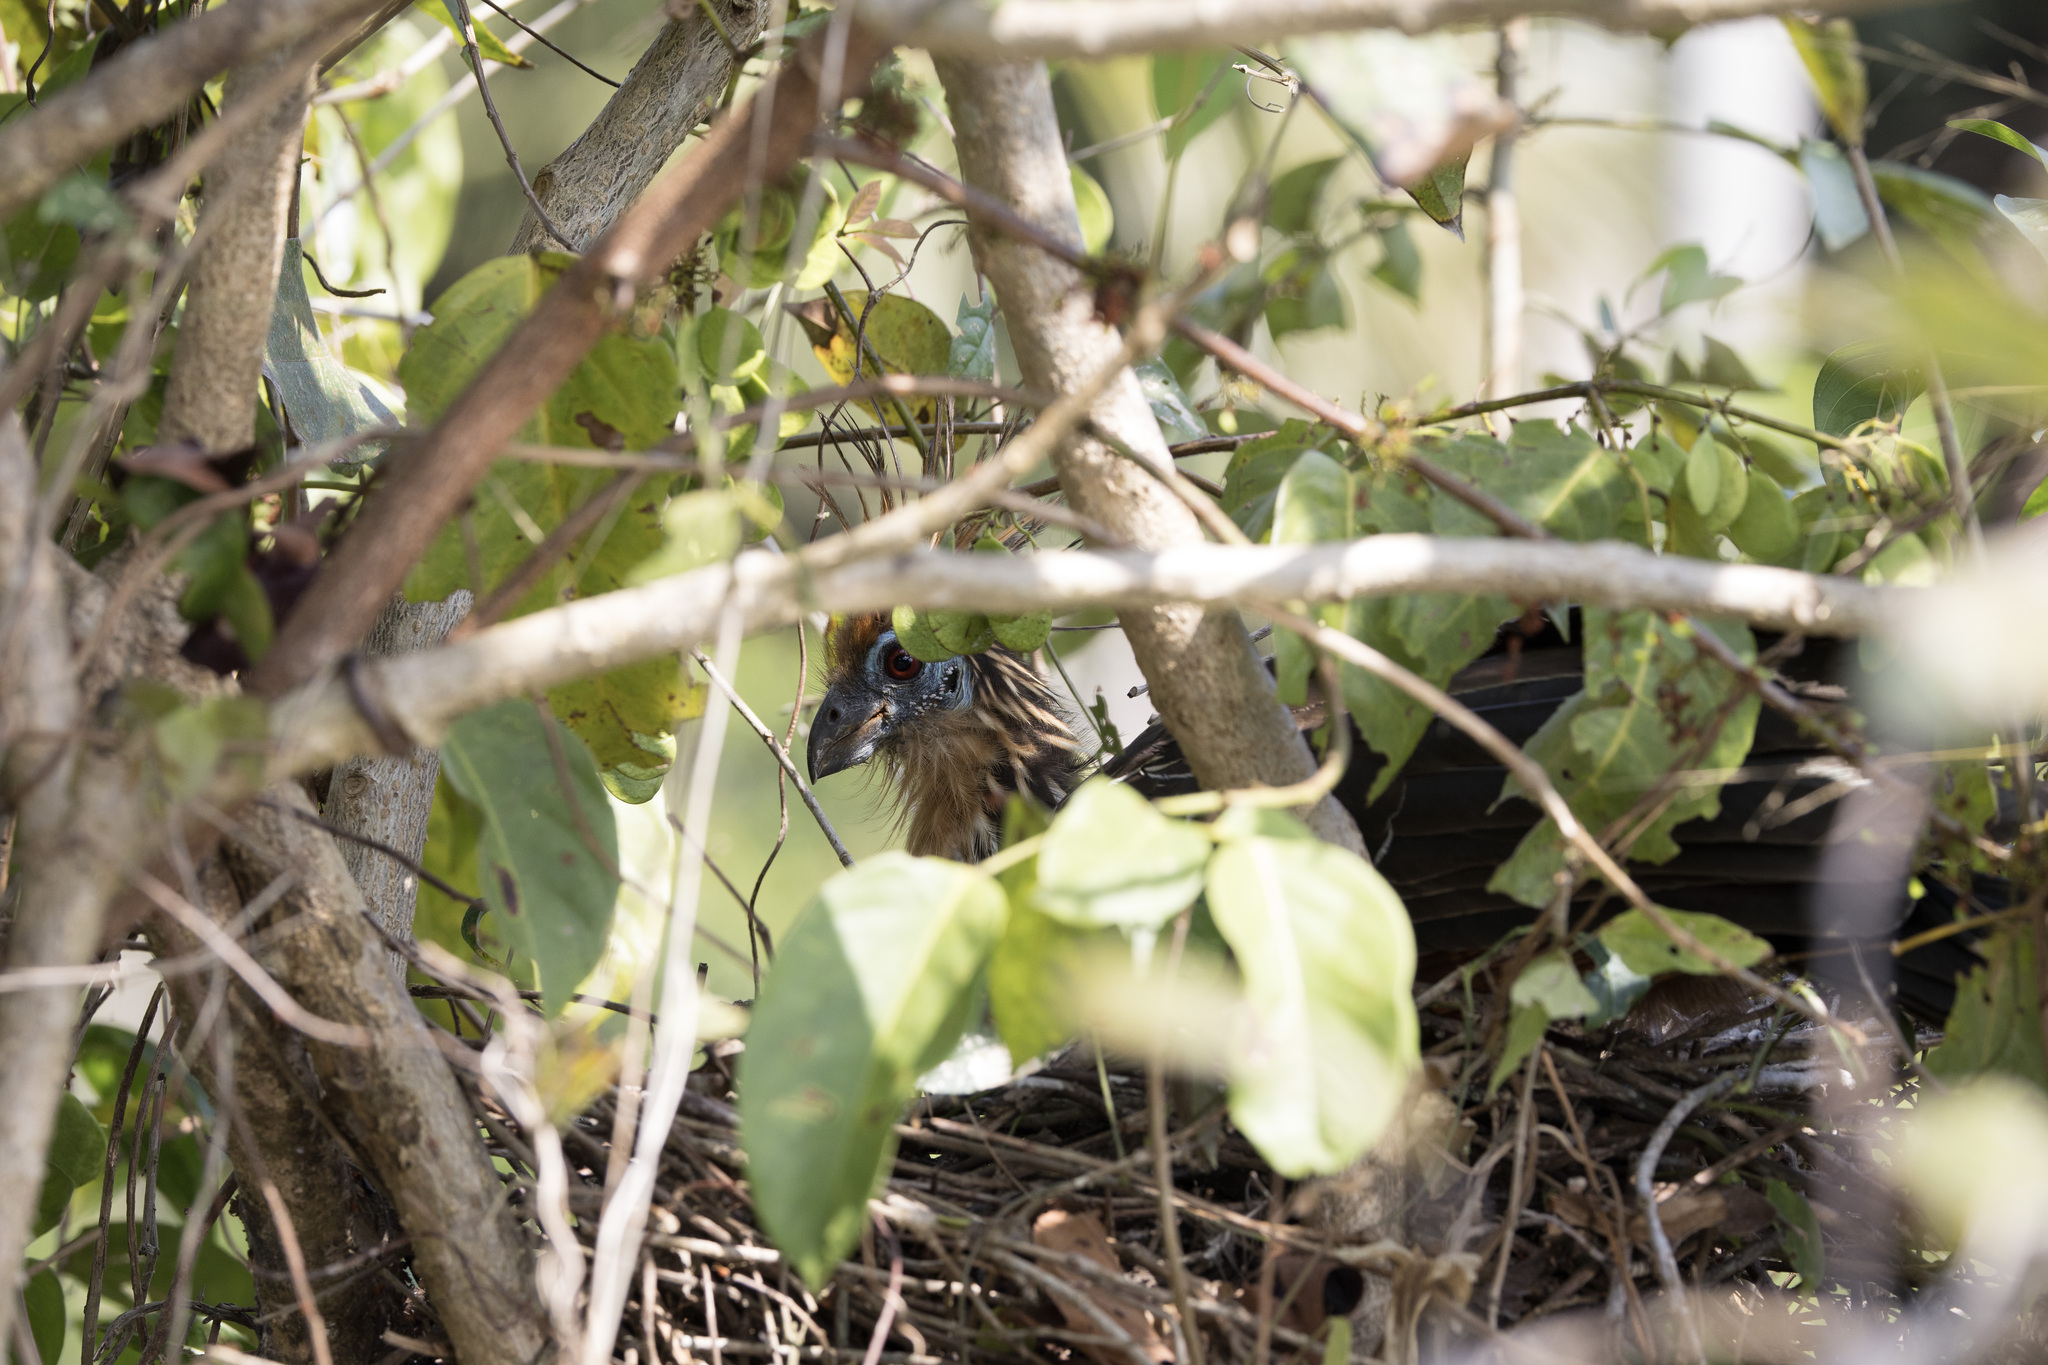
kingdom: Animalia
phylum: Chordata
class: Aves
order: Opisthocomiformes
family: Opisthocomidae
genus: Opisthocomus
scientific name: Opisthocomus hoazin
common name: Hoatzin
